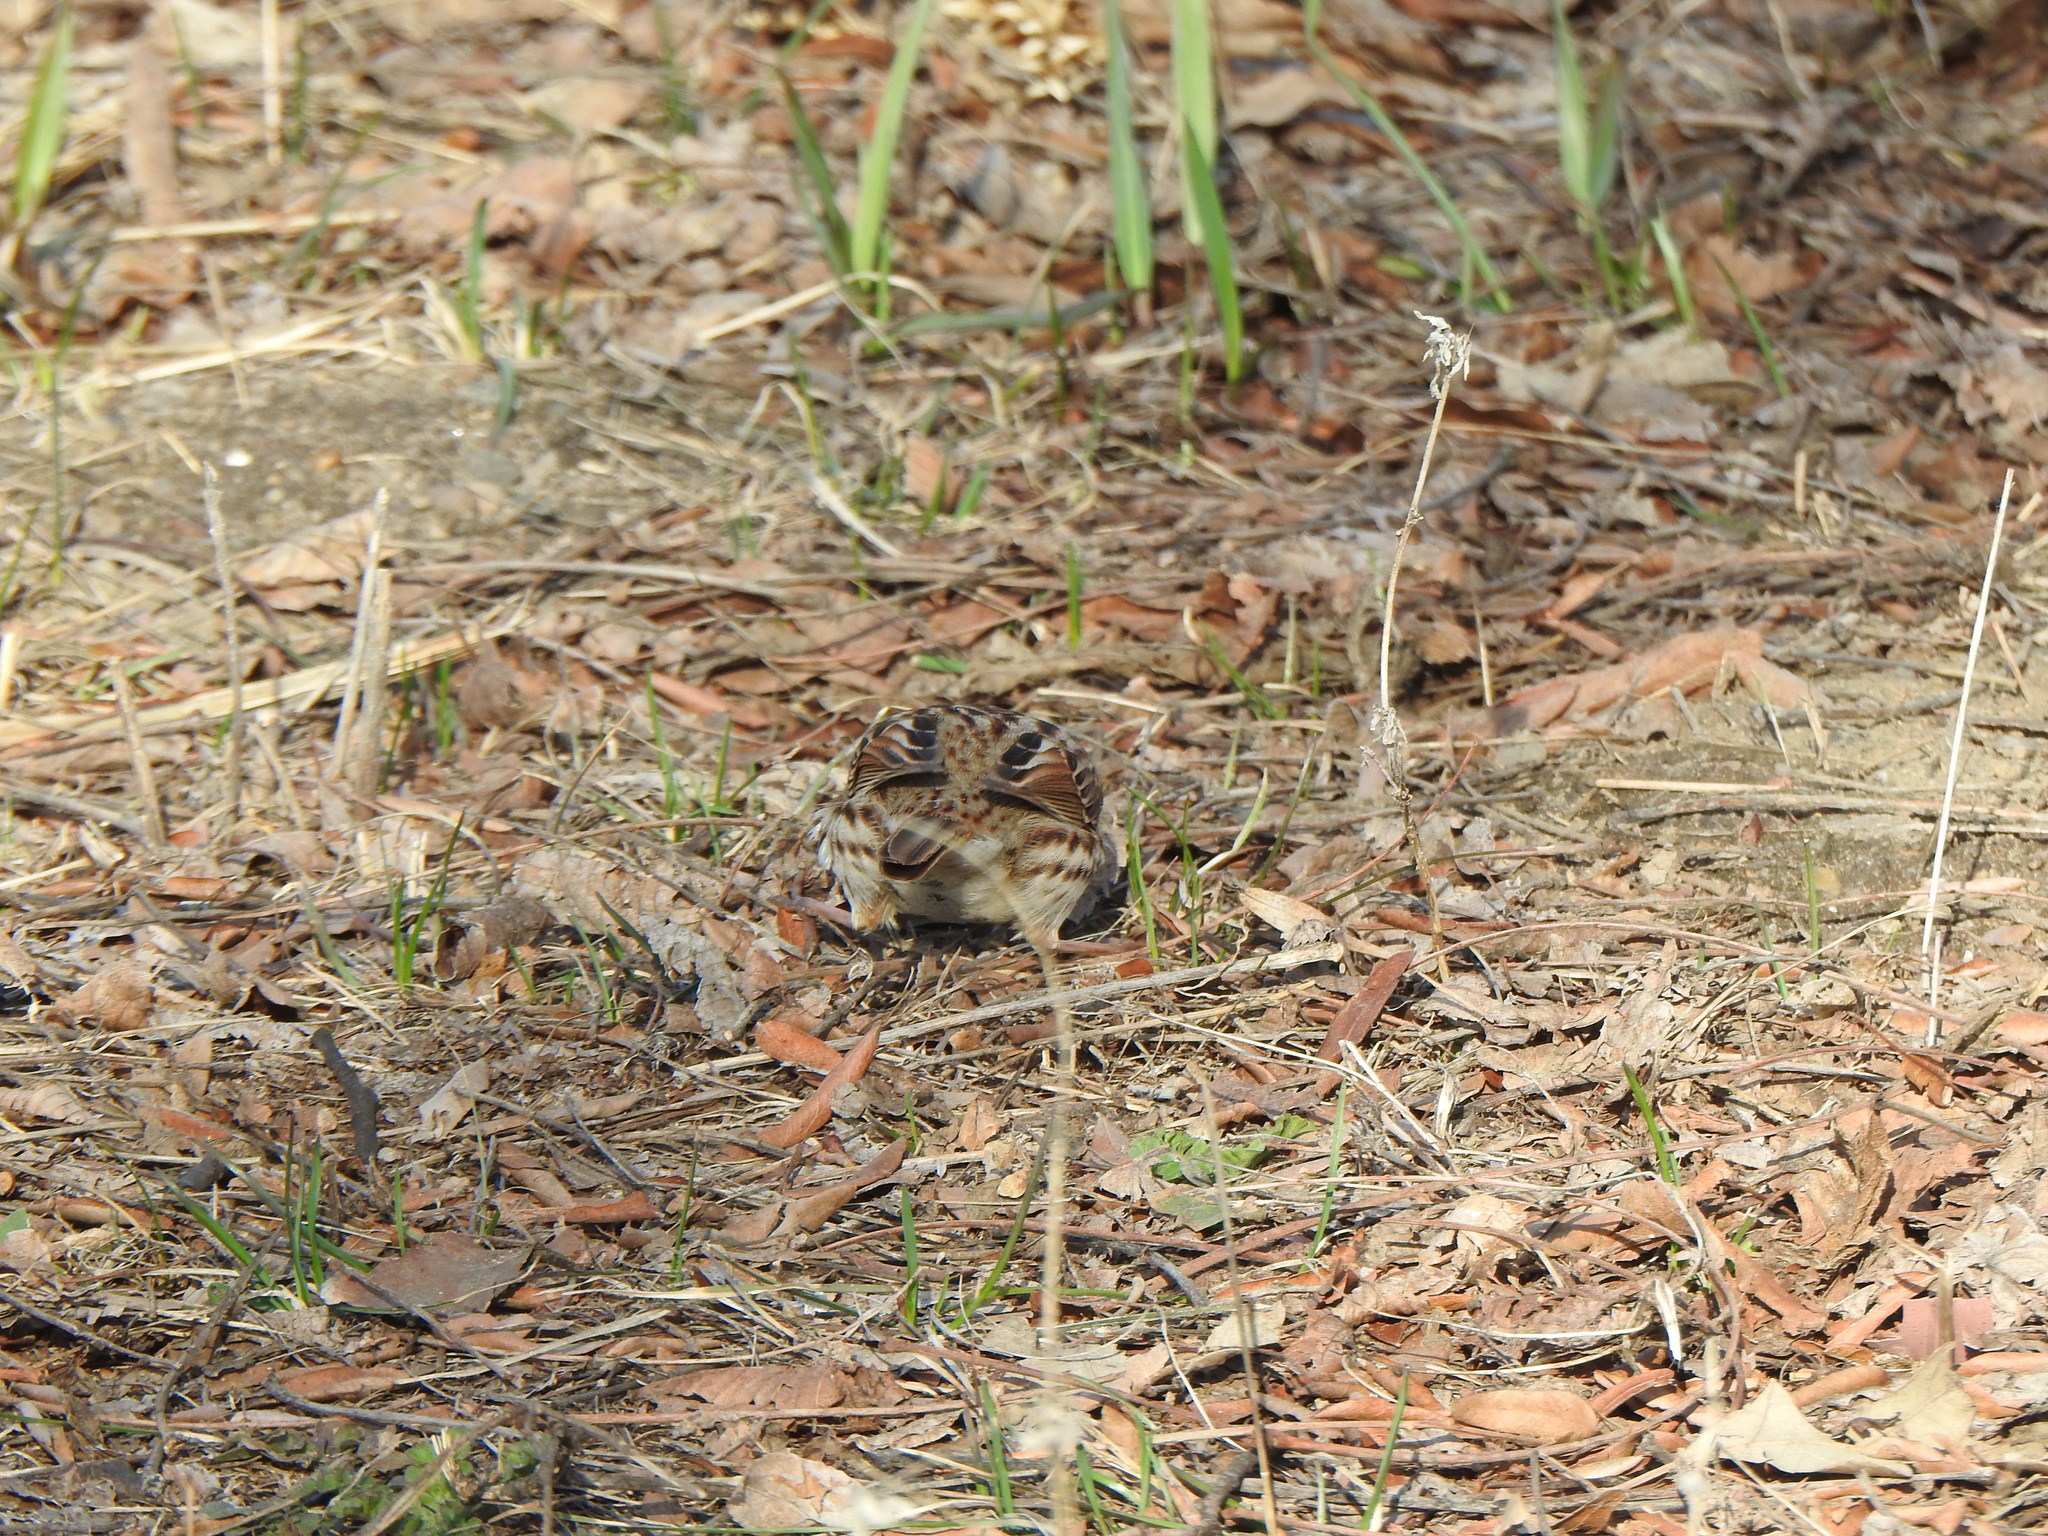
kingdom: Animalia
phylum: Chordata
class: Aves
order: Passeriformes
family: Passerellidae
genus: Melospiza
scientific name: Melospiza melodia
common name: Song sparrow
